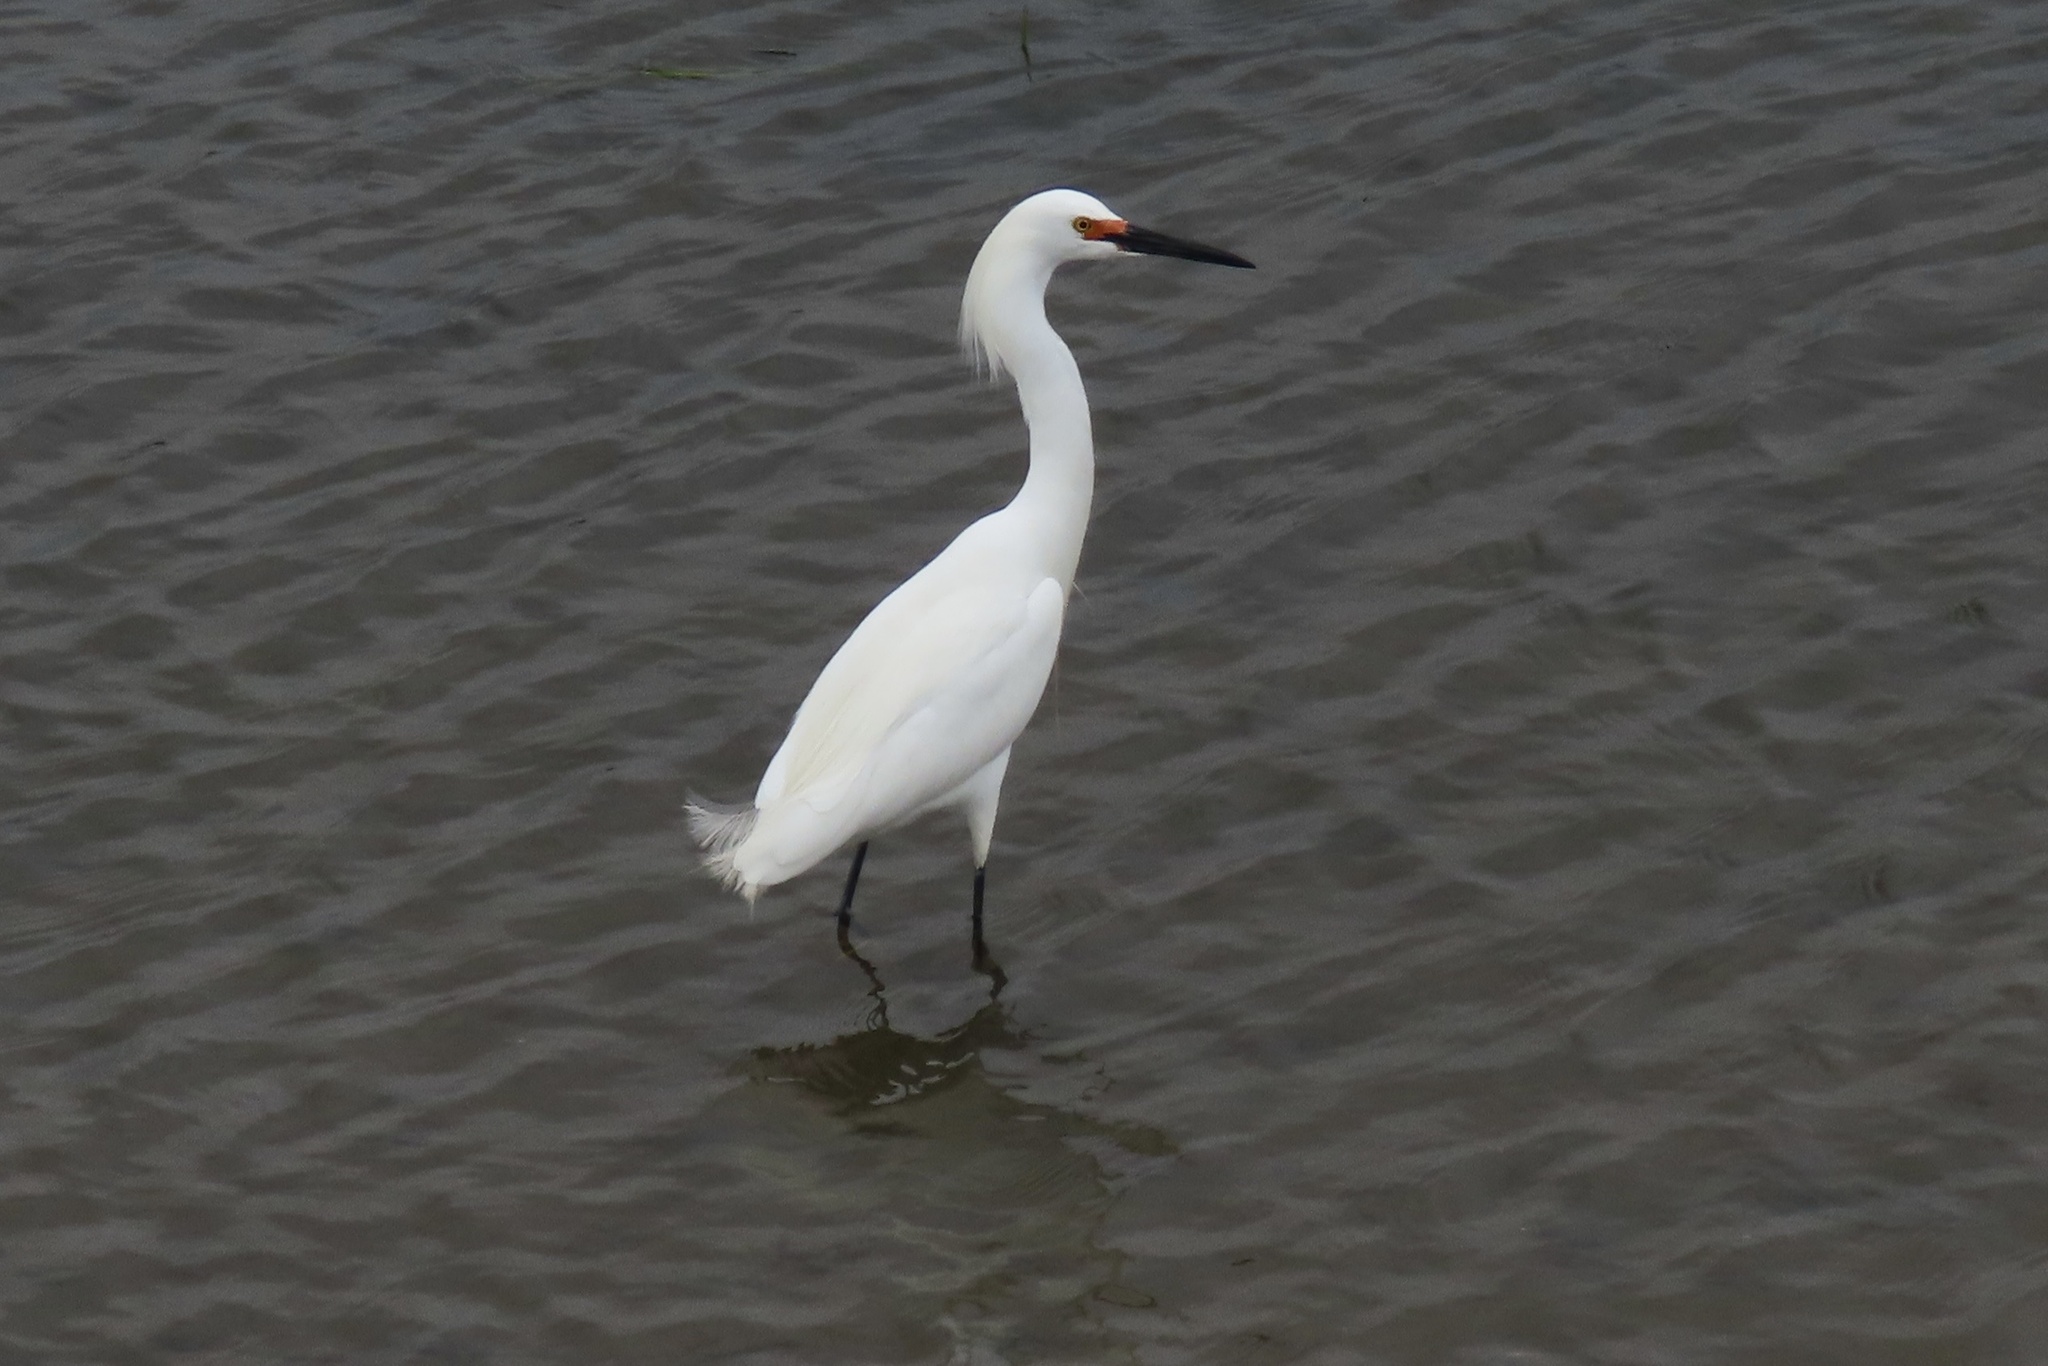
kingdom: Animalia
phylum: Chordata
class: Aves
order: Pelecaniformes
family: Ardeidae
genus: Egretta
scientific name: Egretta thula
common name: Snowy egret
